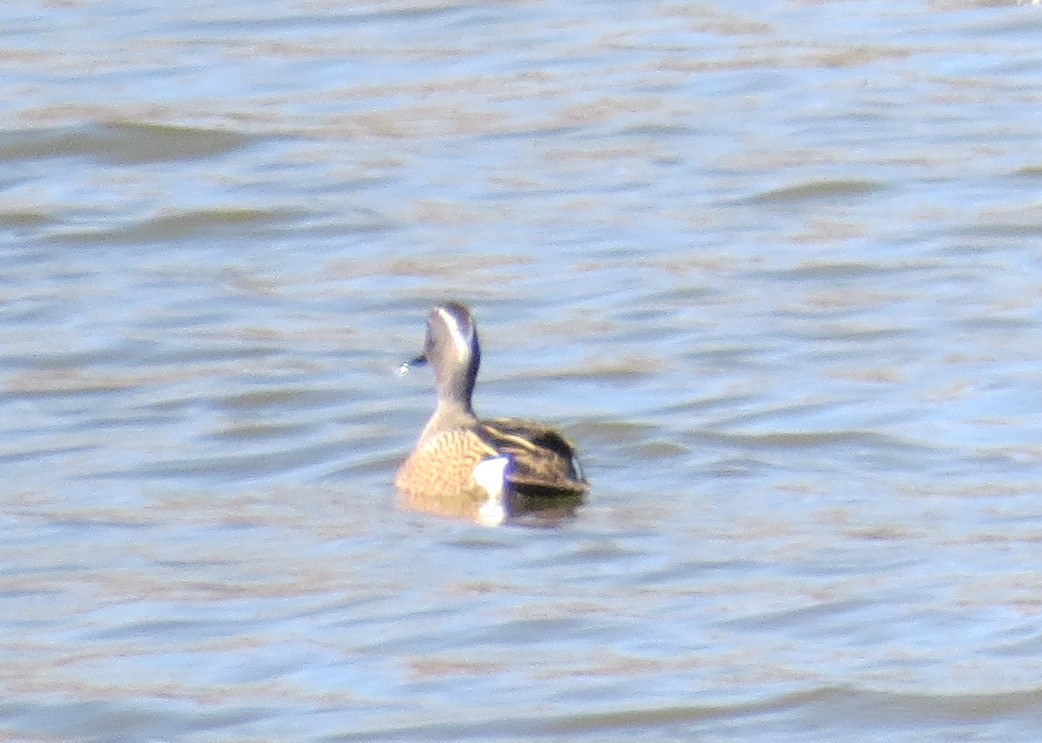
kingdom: Animalia
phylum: Chordata
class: Aves
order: Anseriformes
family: Anatidae
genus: Spatula
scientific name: Spatula discors
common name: Blue-winged teal
